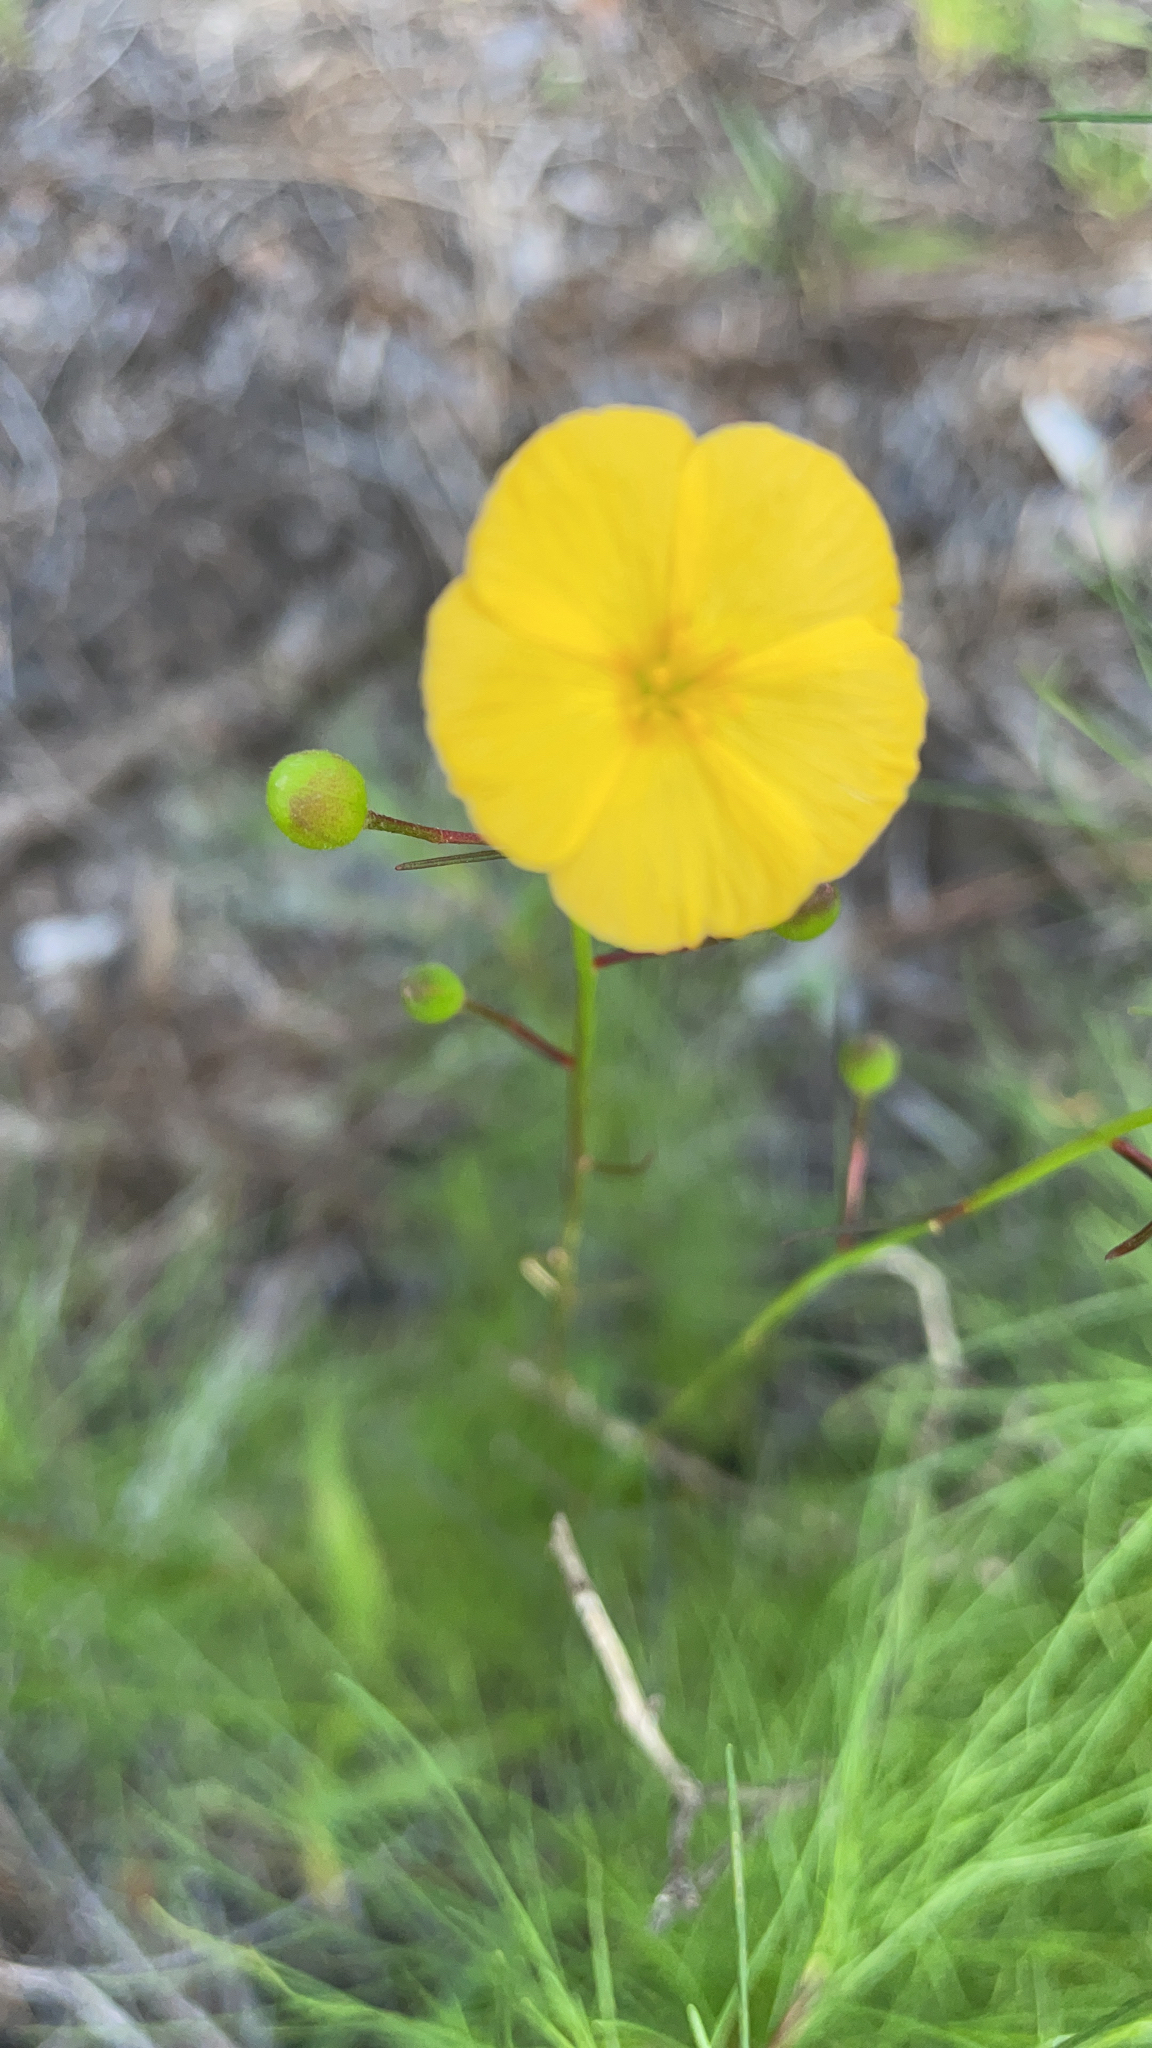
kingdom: Plantae
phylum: Tracheophyta
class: Magnoliopsida
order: Malpighiales
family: Turneraceae
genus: Piriqueta
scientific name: Piriqueta cistoides
